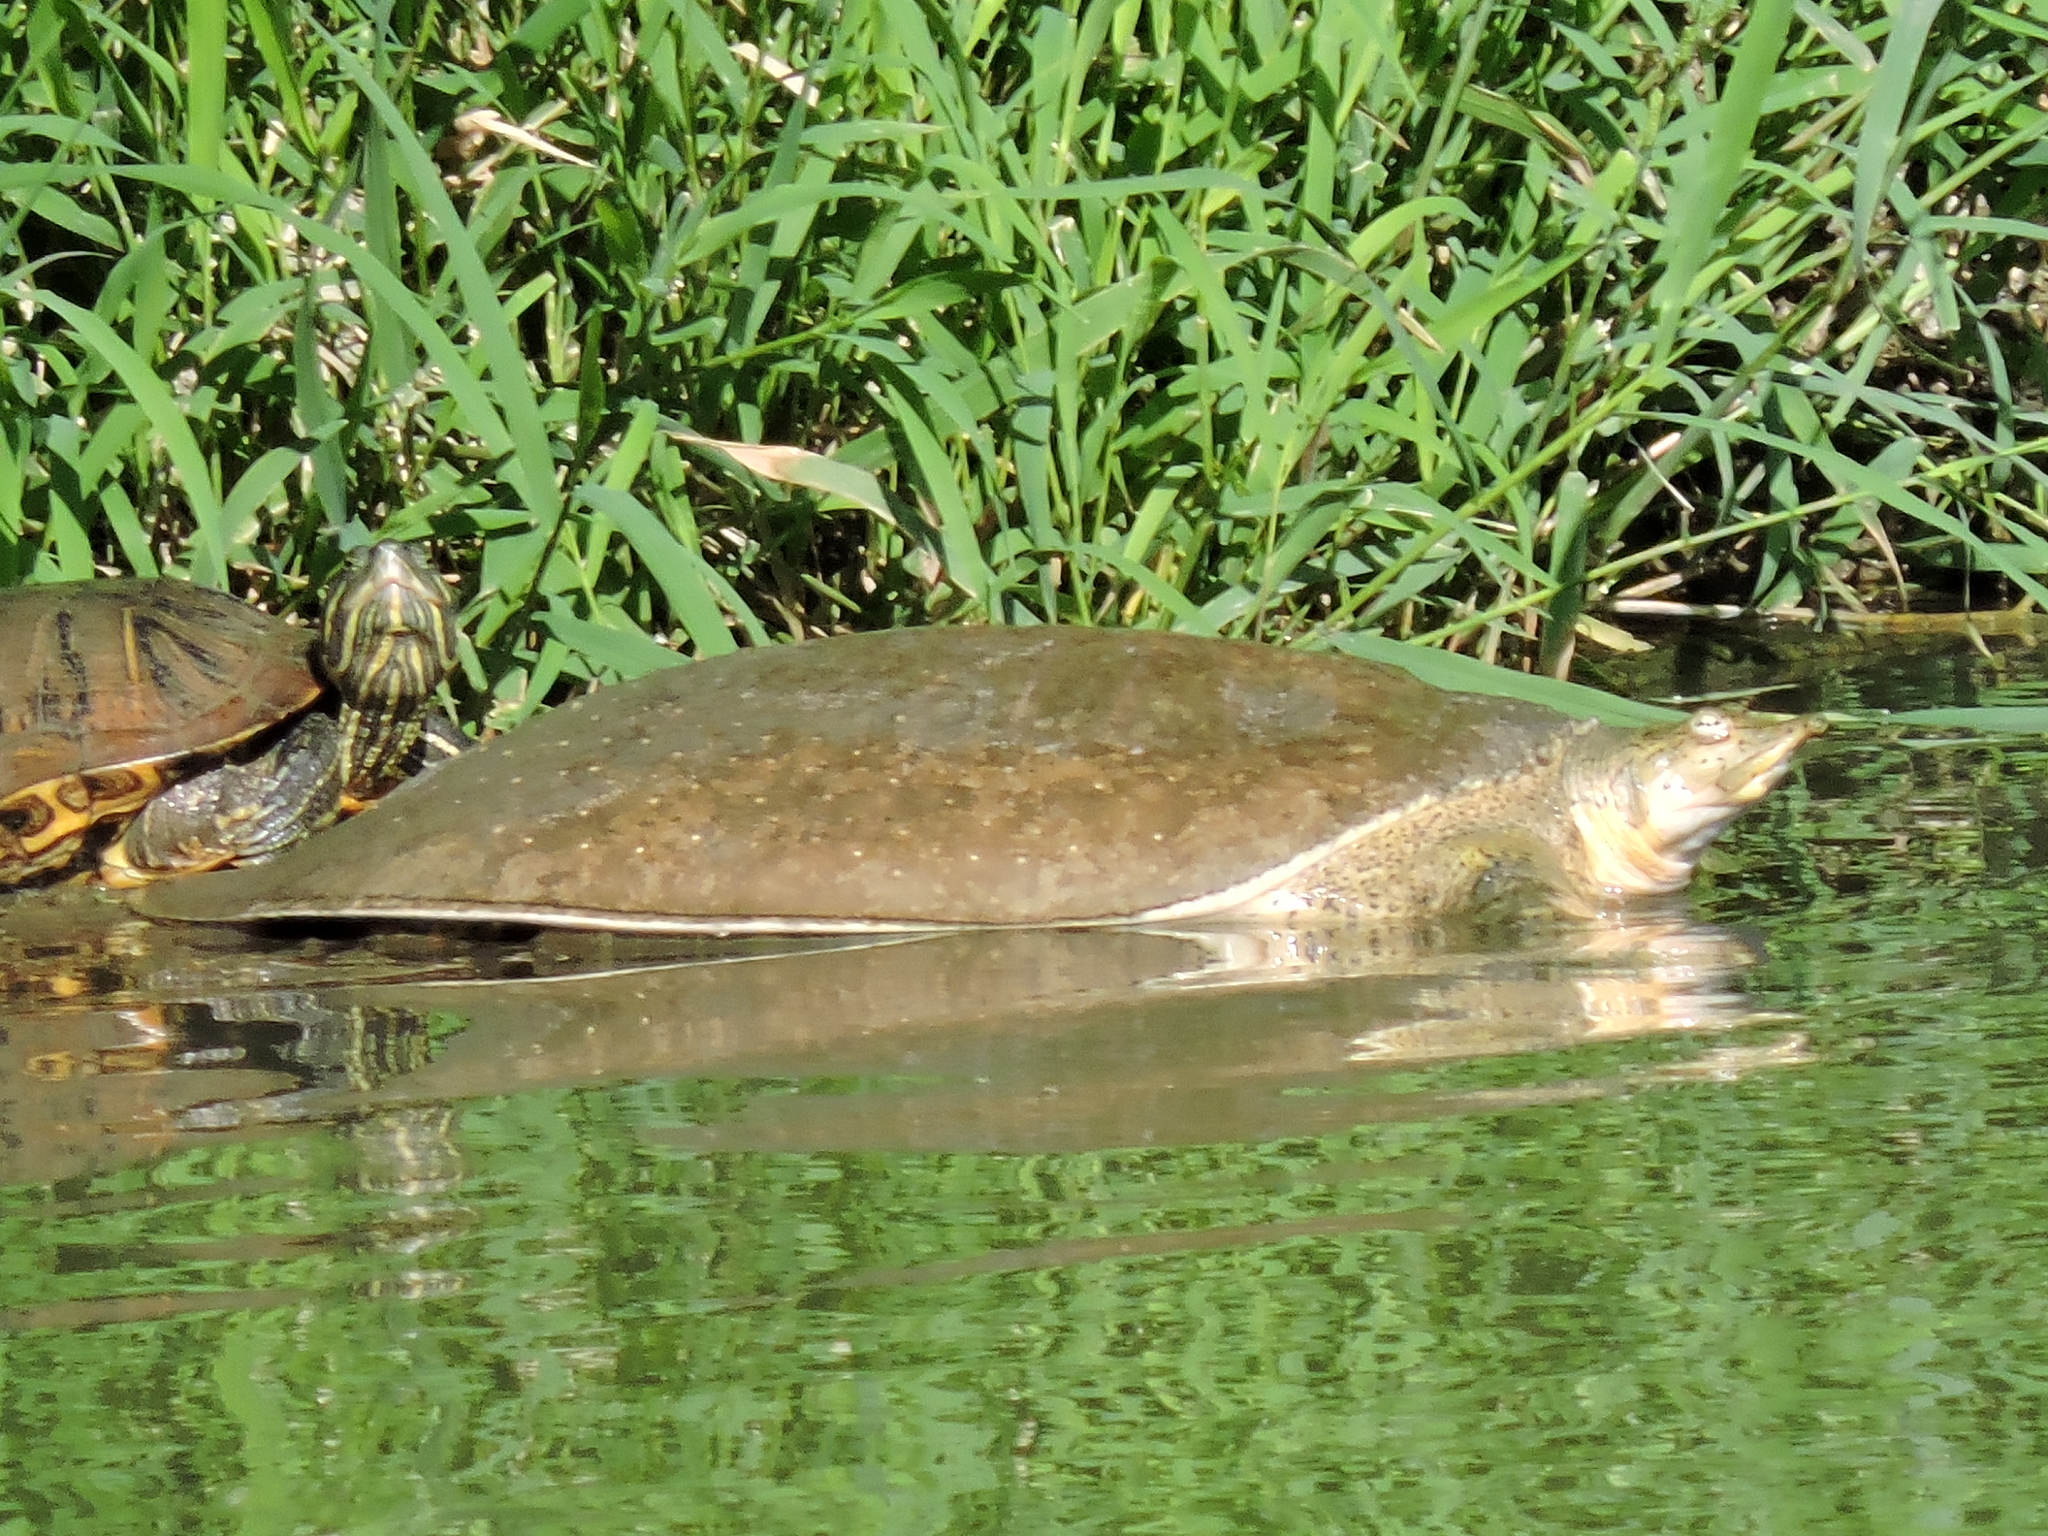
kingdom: Animalia
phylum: Chordata
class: Testudines
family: Trionychidae
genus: Apalone
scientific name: Apalone spinifera
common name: Spiny softshell turtle
